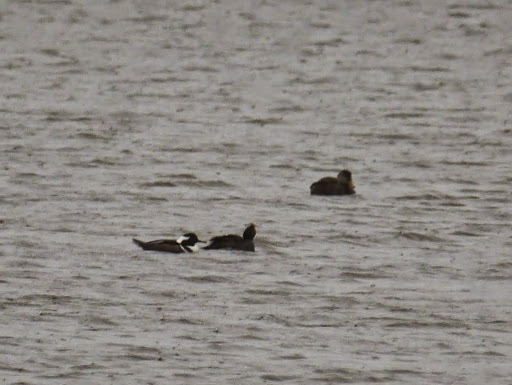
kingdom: Animalia
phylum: Chordata
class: Aves
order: Anseriformes
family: Anatidae
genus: Lophodytes
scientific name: Lophodytes cucullatus
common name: Hooded merganser
